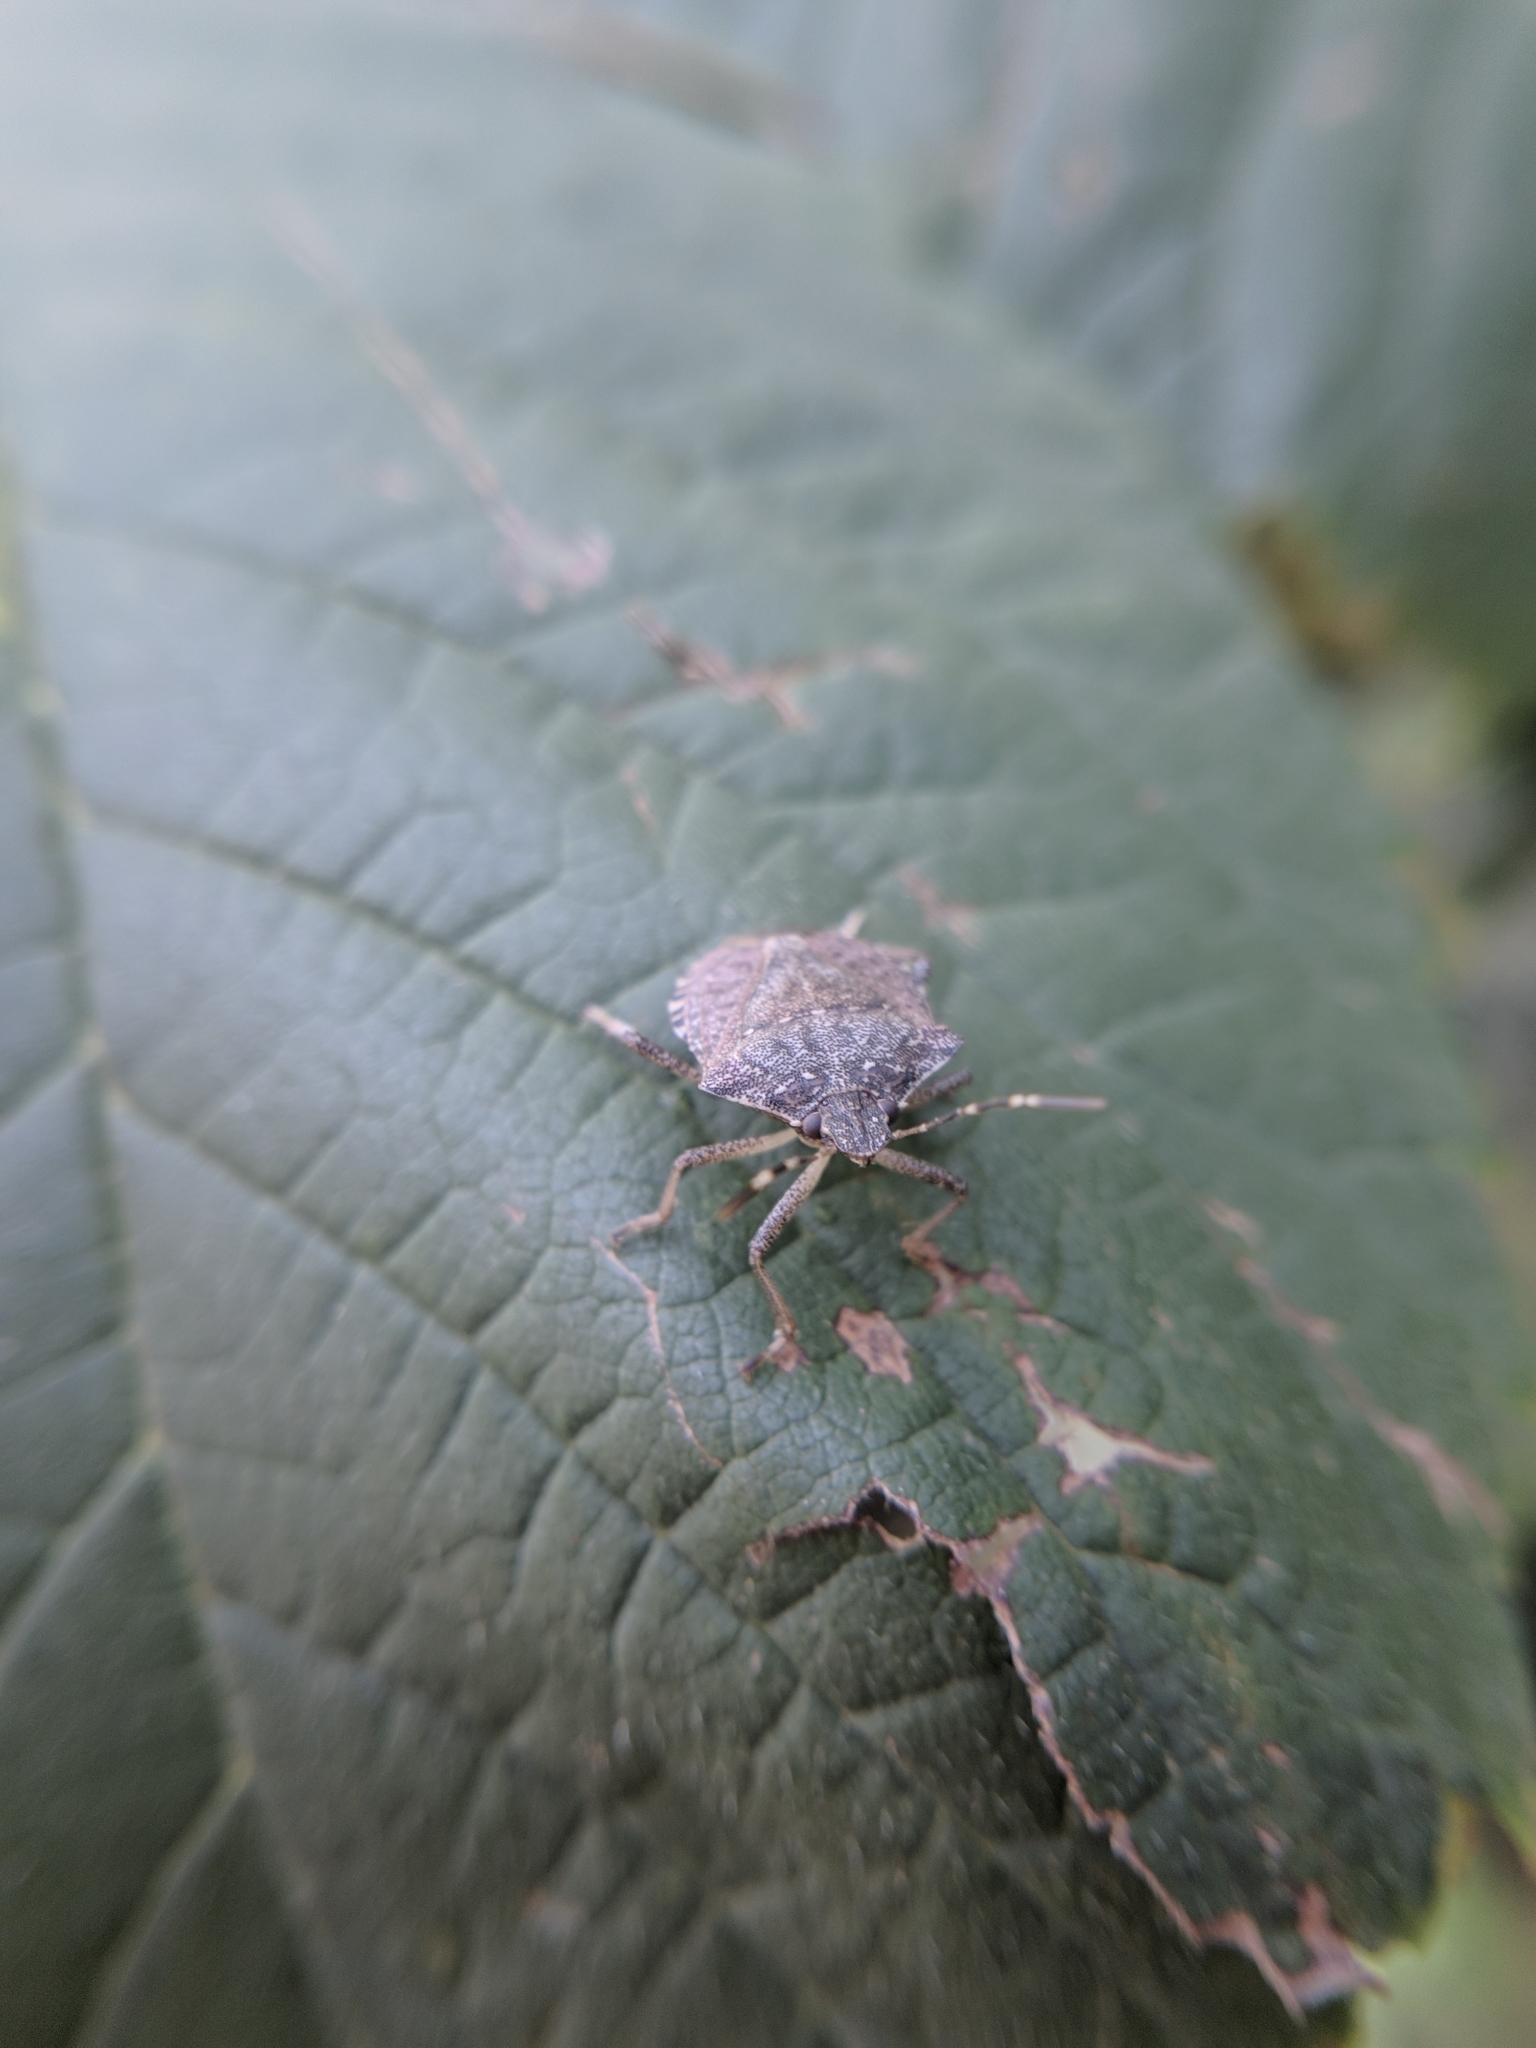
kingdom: Animalia
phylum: Arthropoda
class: Insecta
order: Hemiptera
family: Pentatomidae
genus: Halyomorpha
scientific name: Halyomorpha halys
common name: Brown marmorated stink bug
